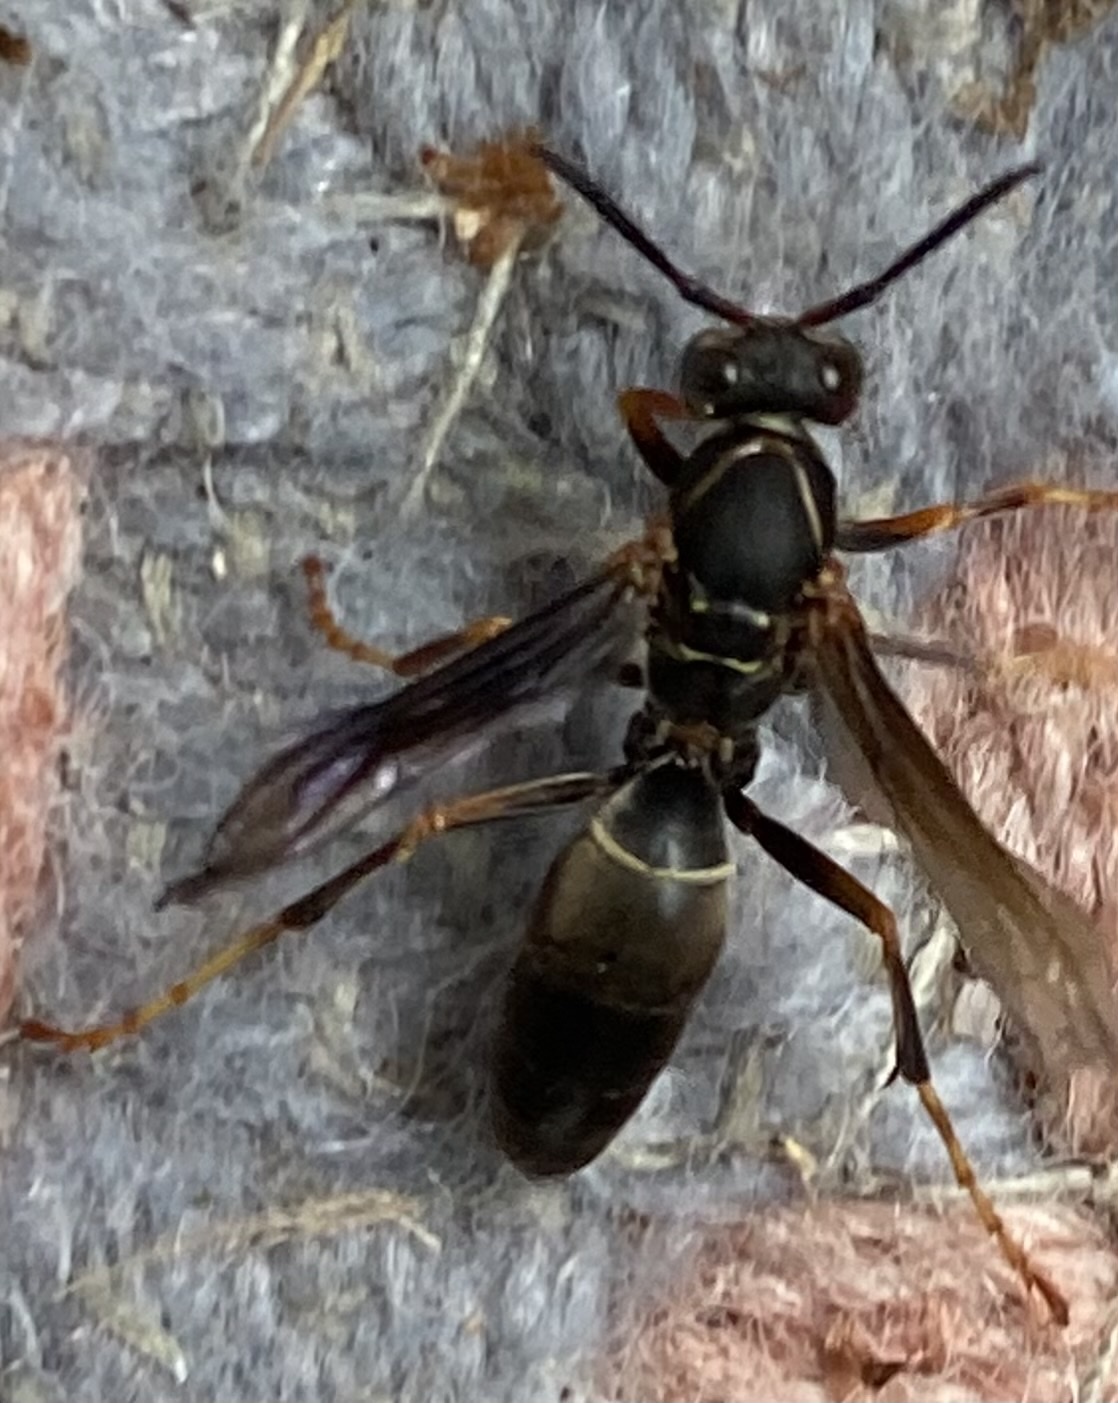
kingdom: Animalia
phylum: Arthropoda
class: Insecta
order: Hymenoptera
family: Eumenidae
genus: Polistes
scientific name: Polistes fuscatus
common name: Dark paper wasp
